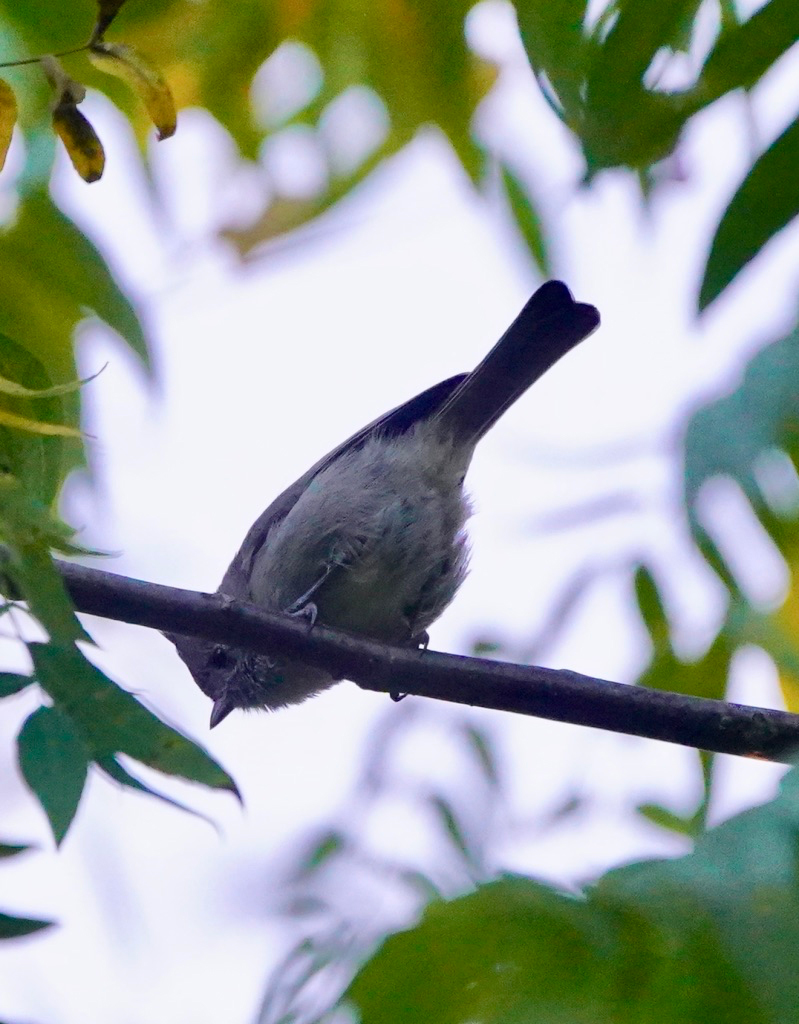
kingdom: Animalia
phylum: Chordata
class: Aves
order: Passeriformes
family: Paridae
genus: Baeolophus
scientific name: Baeolophus inornatus
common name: Oak titmouse
